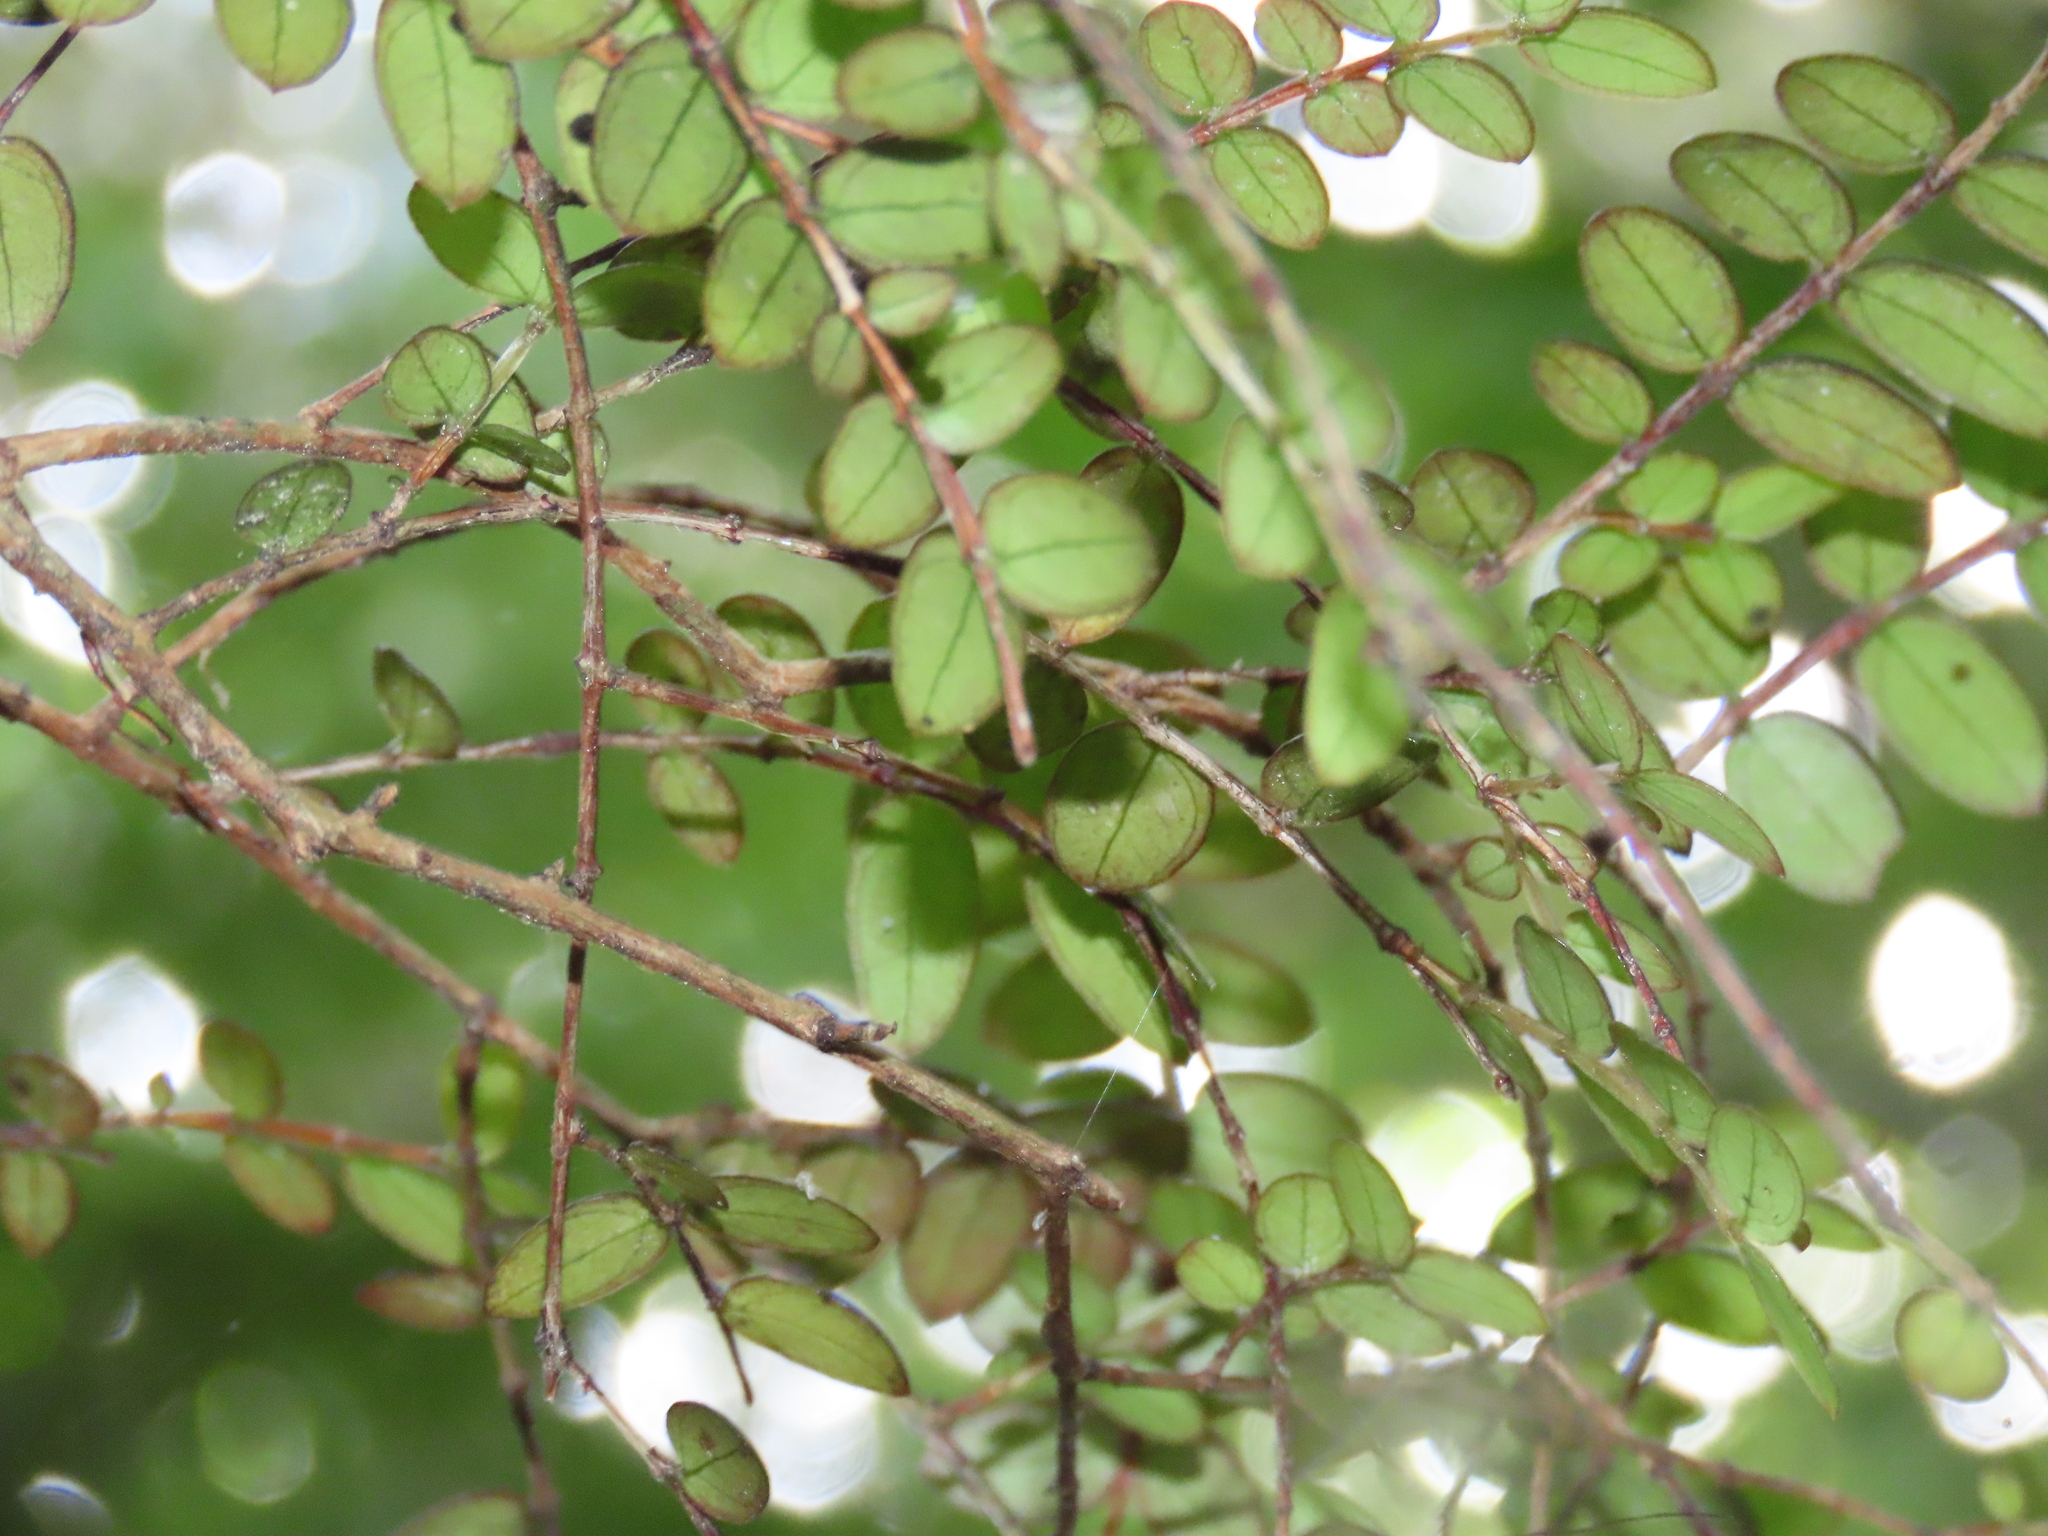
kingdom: Plantae
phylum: Tracheophyta
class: Magnoliopsida
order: Myrtales
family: Myrtaceae
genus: Metrosideros
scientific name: Metrosideros diffusa
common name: Small ratavine
